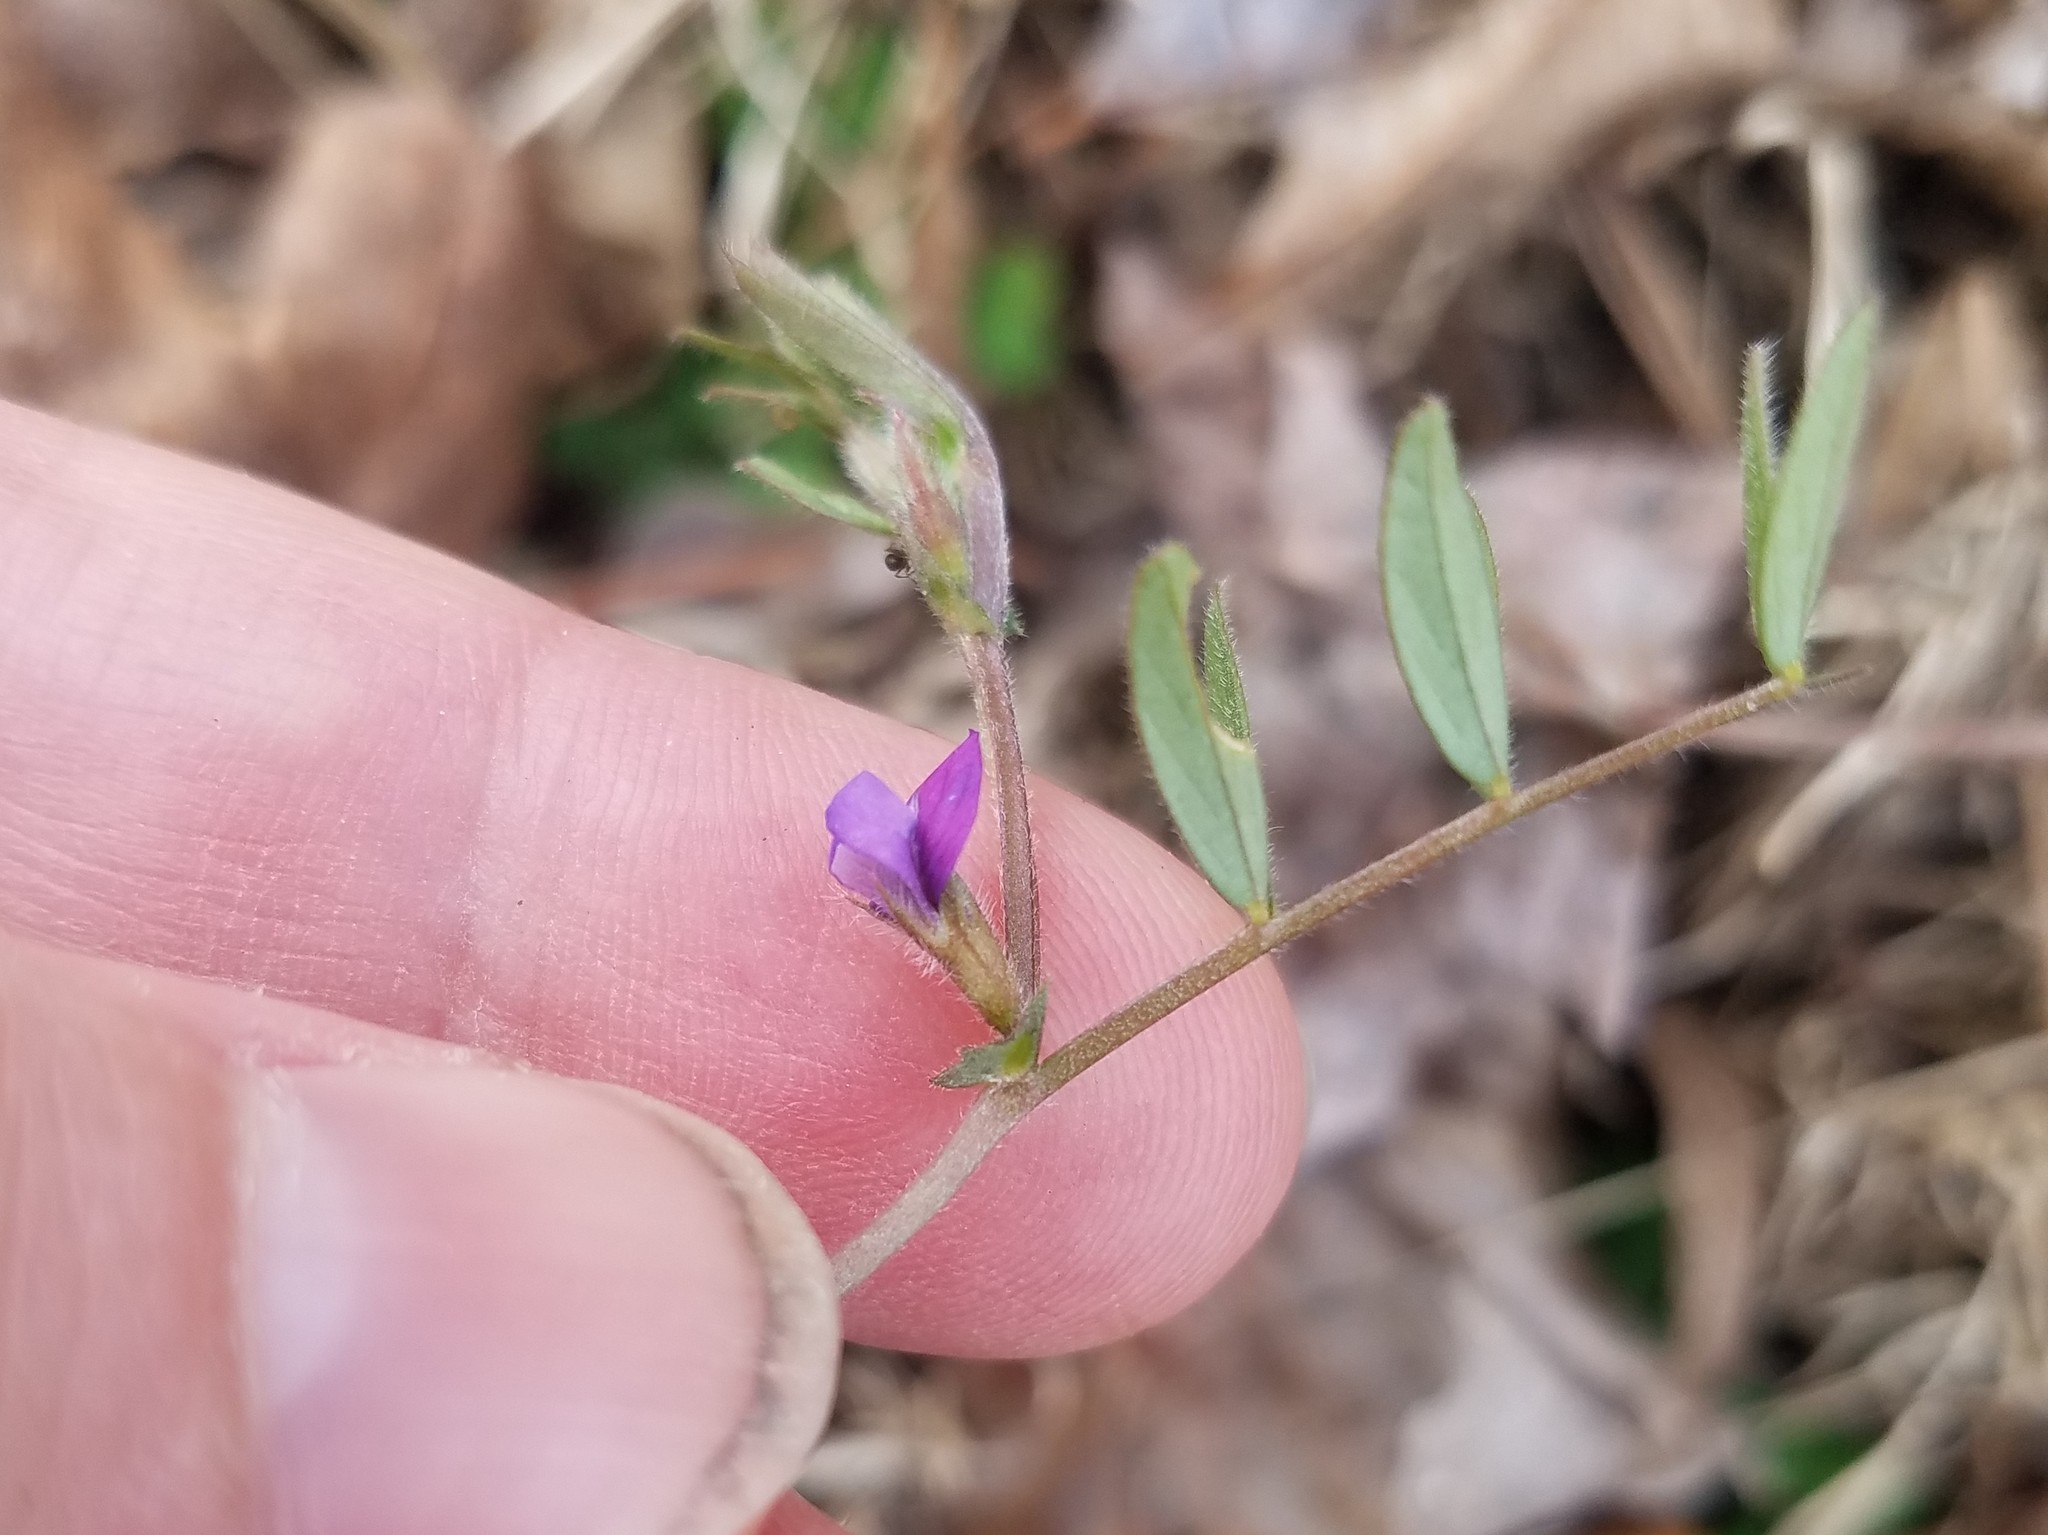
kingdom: Plantae
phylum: Tracheophyta
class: Magnoliopsida
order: Fabales
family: Fabaceae
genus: Vicia
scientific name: Vicia lathyroides
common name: Spring vetch
